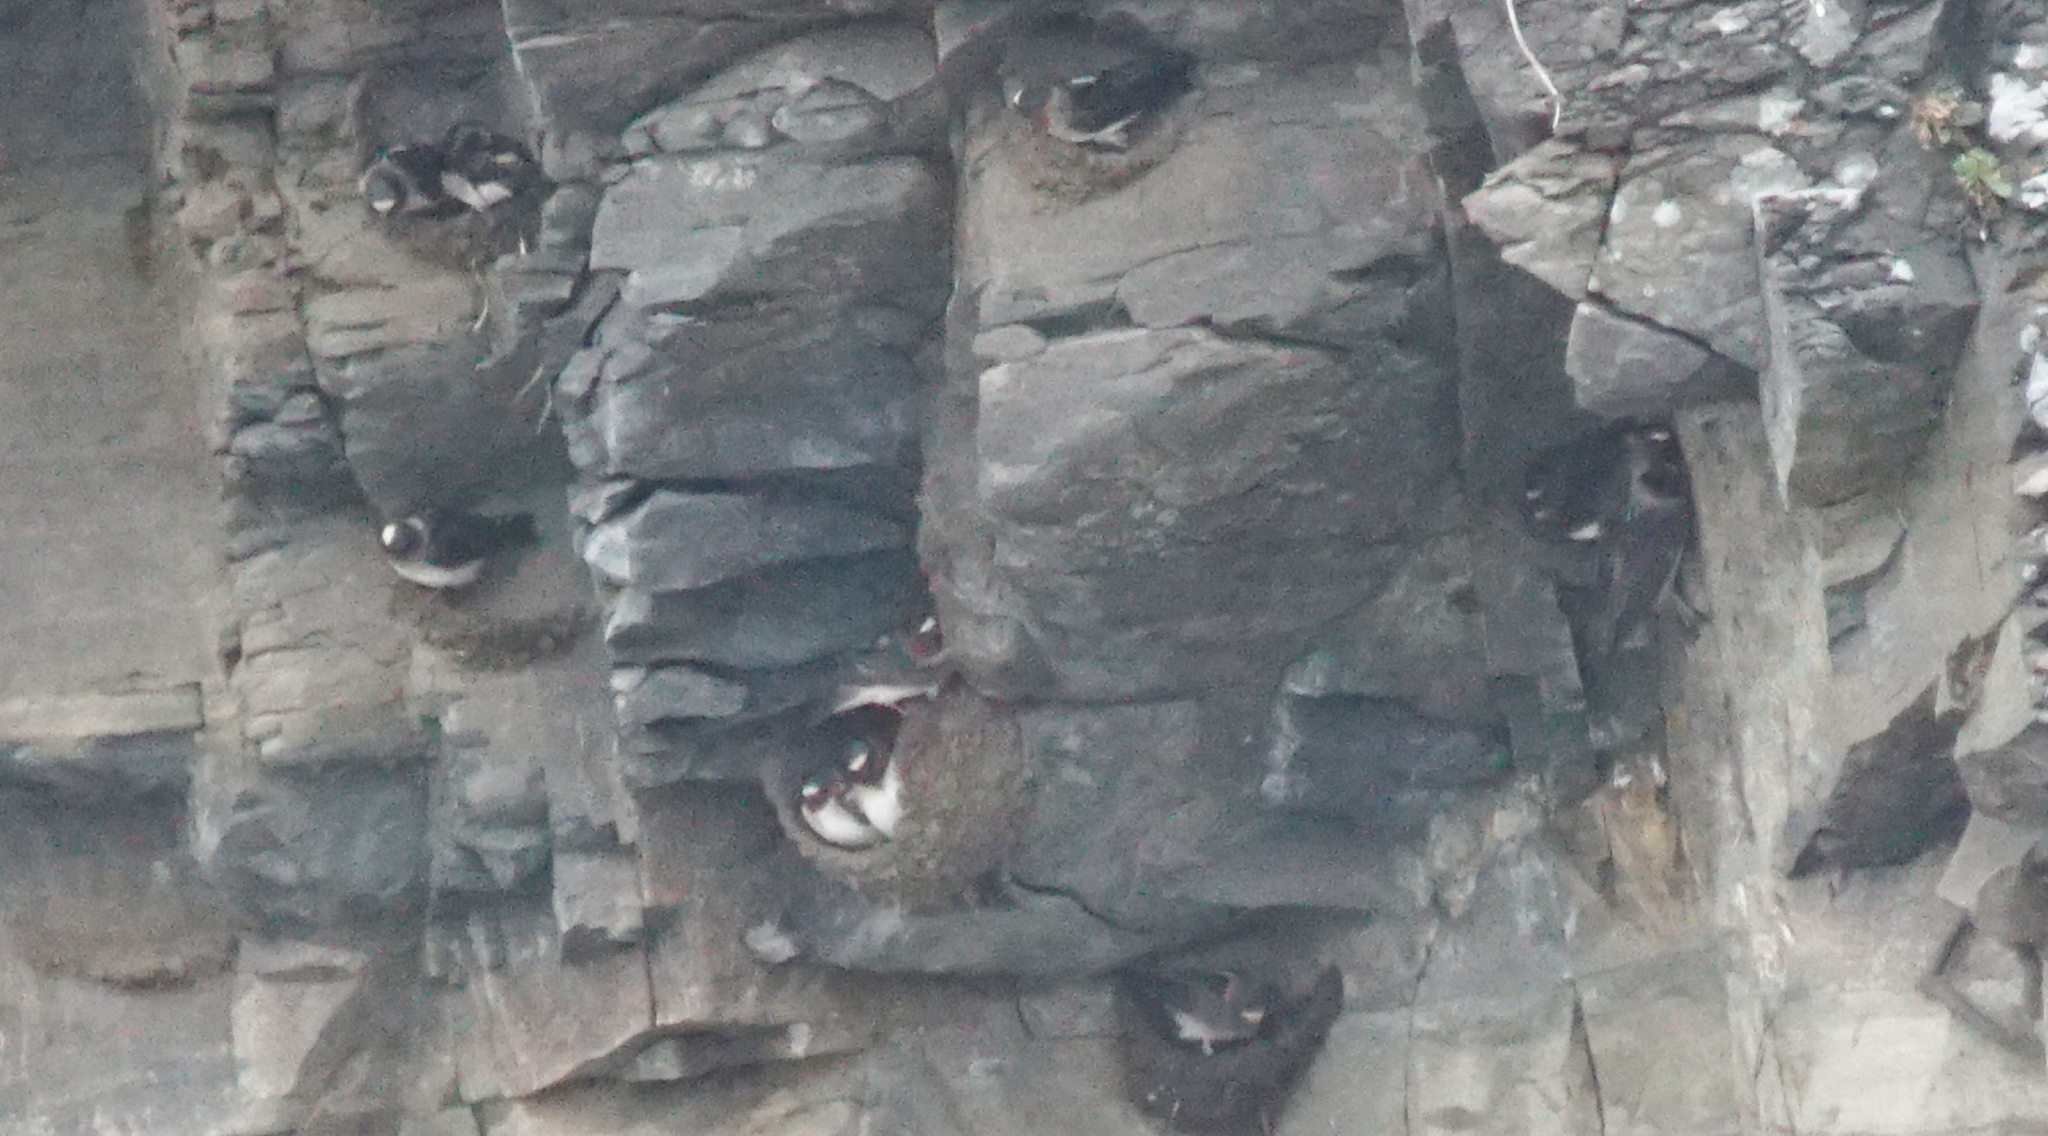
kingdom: Animalia
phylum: Chordata
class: Aves
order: Passeriformes
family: Hirundinidae
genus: Petrochelidon
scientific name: Petrochelidon pyrrhonota
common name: American cliff swallow
